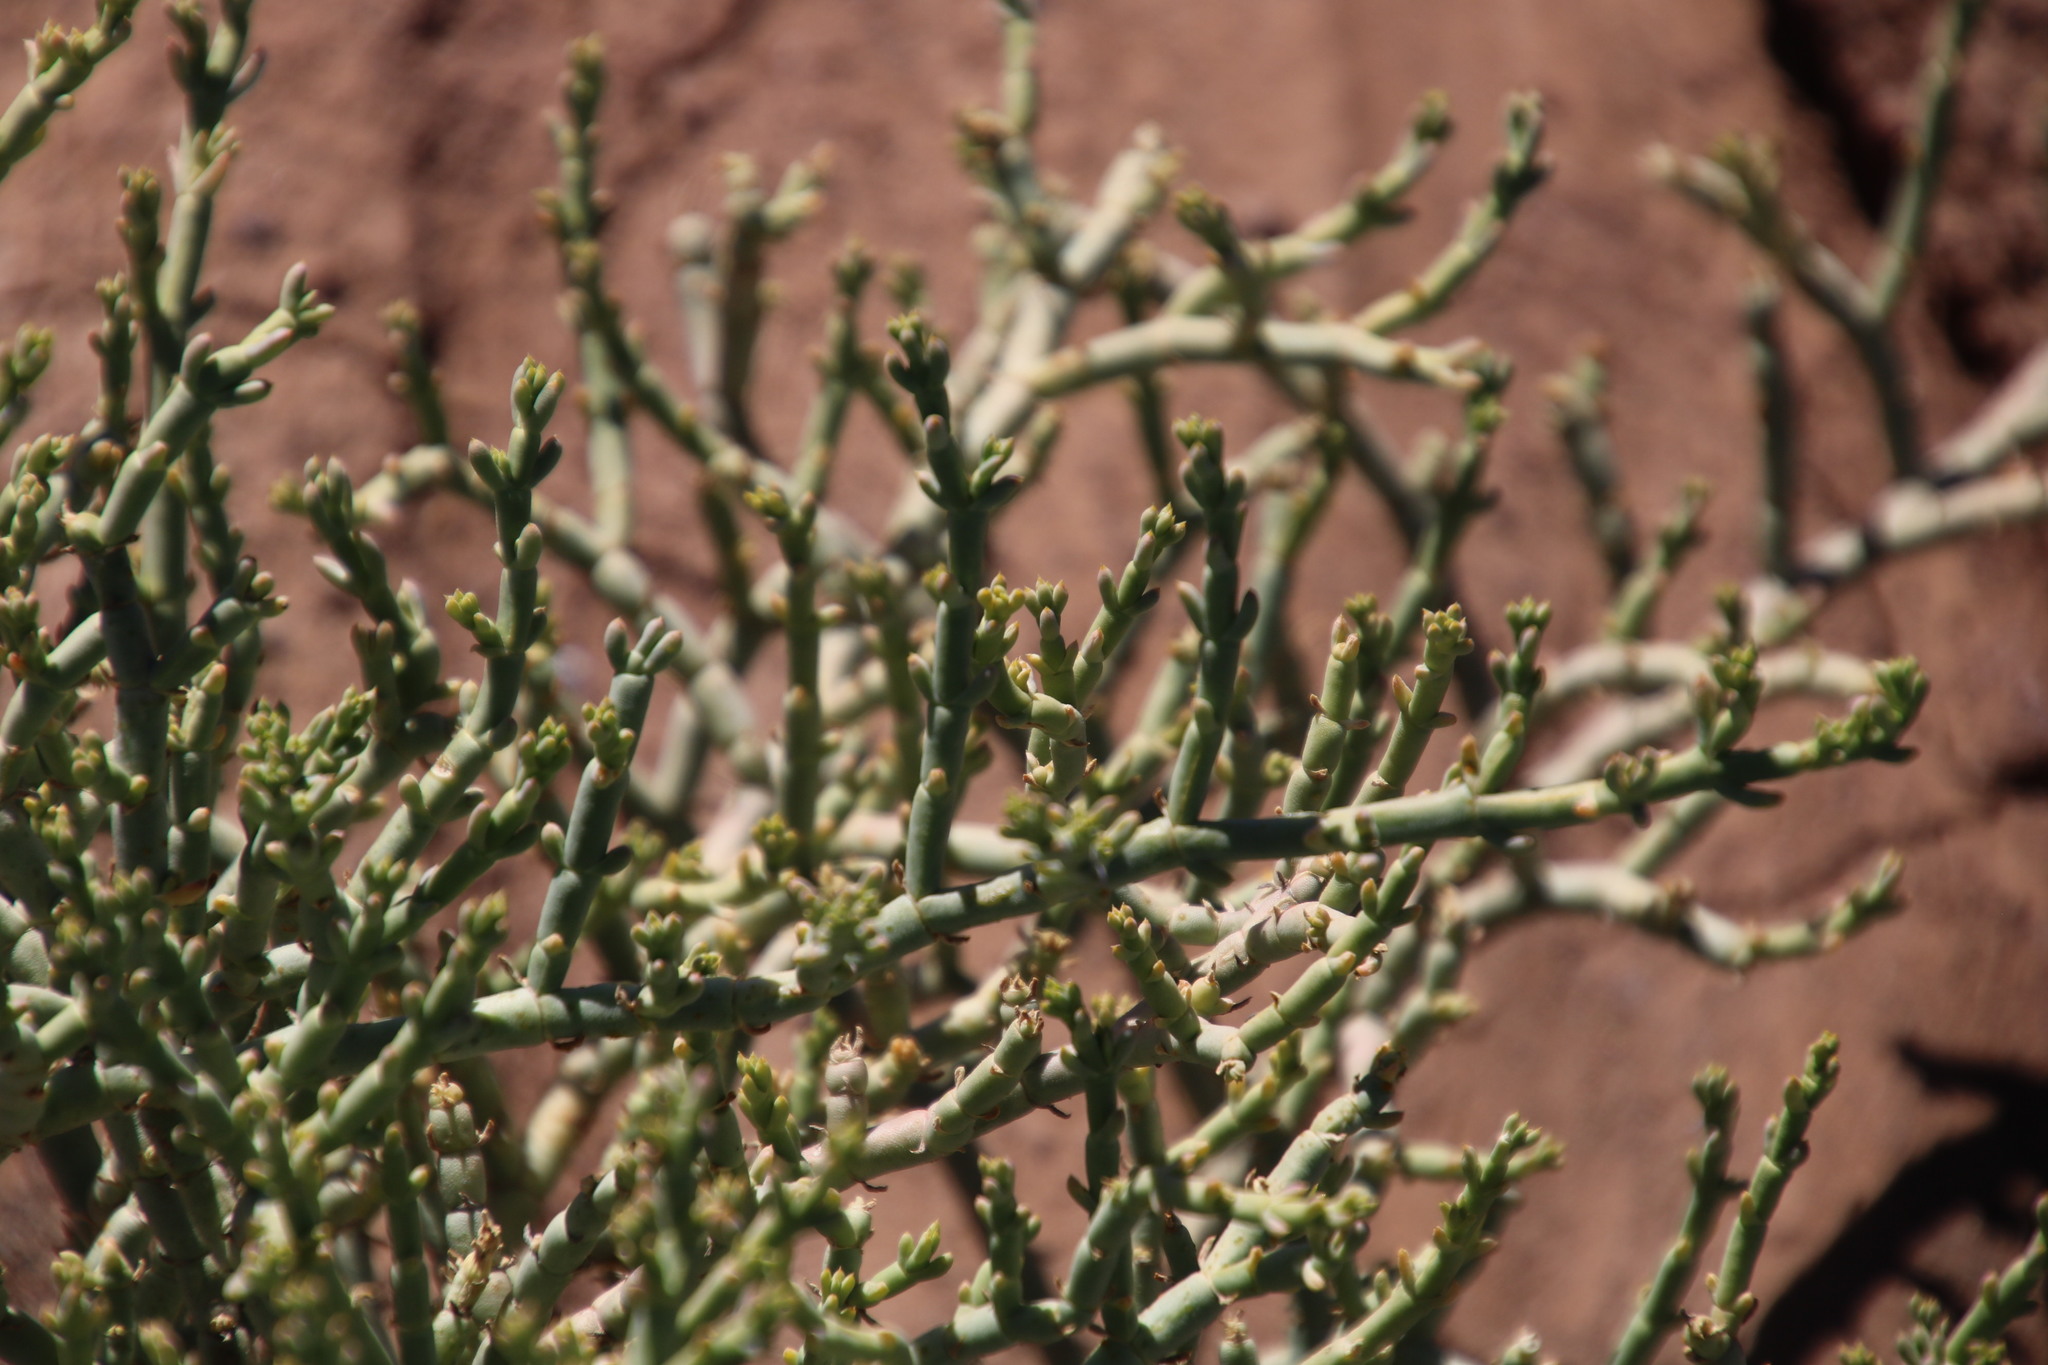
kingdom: Plantae
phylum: Tracheophyta
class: Magnoliopsida
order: Caryophyllales
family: Aizoaceae
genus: Mesembryanthemum
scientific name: Mesembryanthemum coriarium
